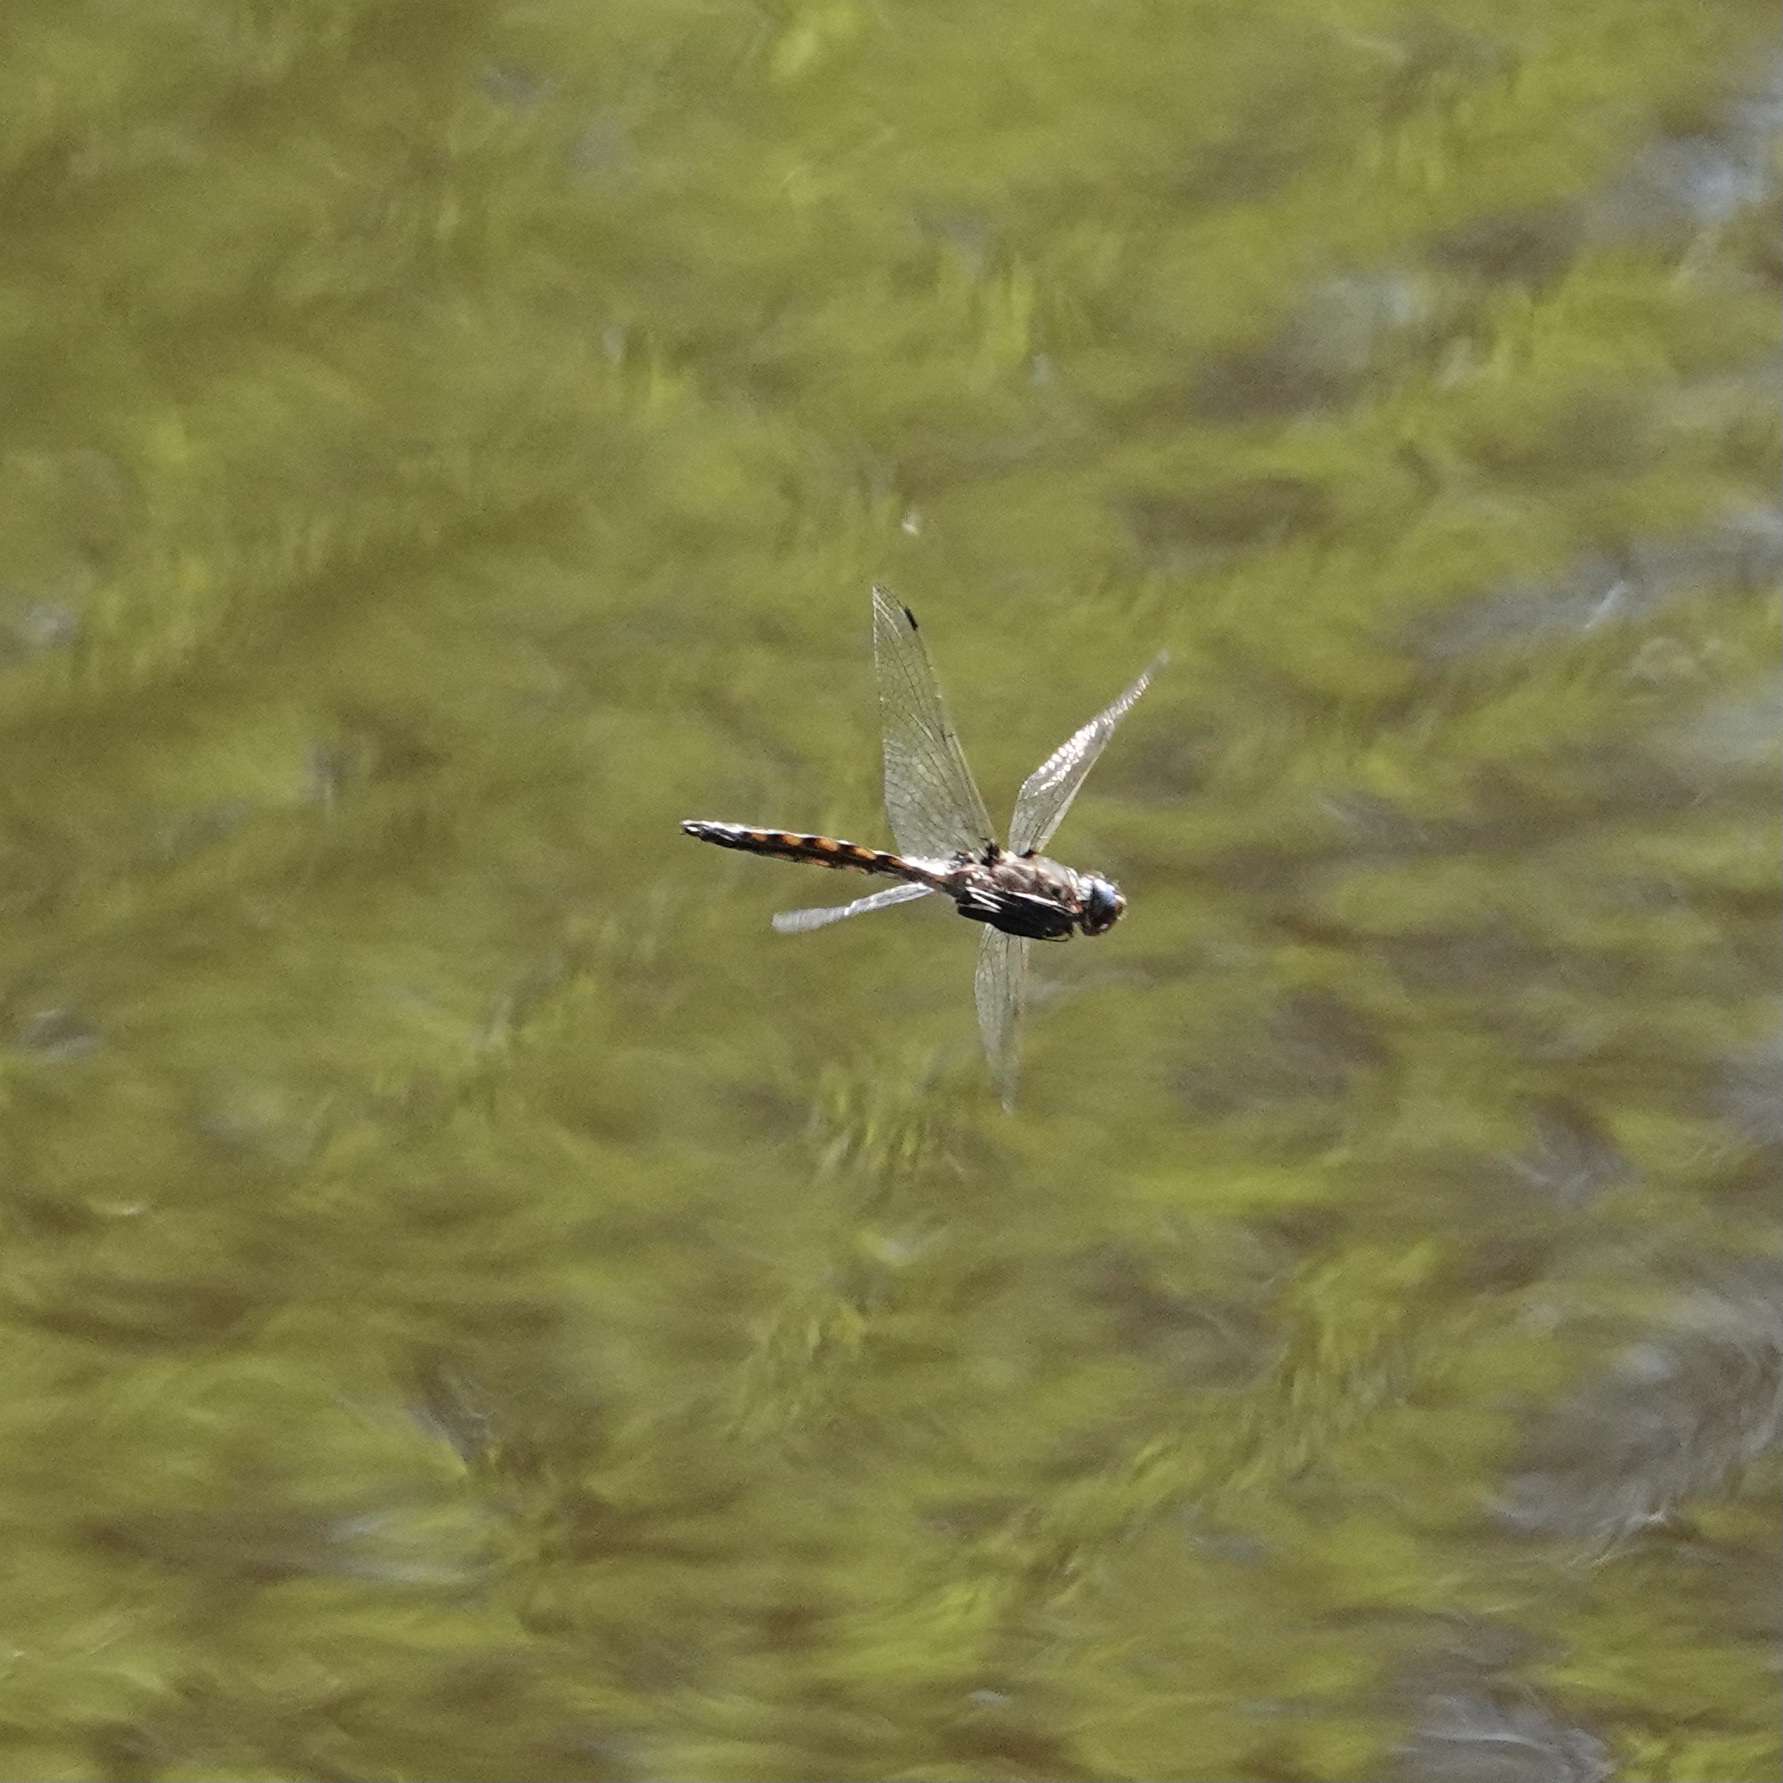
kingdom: Animalia
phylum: Arthropoda
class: Insecta
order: Odonata
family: Corduliidae
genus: Epitheca
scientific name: Epitheca canis
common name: Beaverpond baskettail
